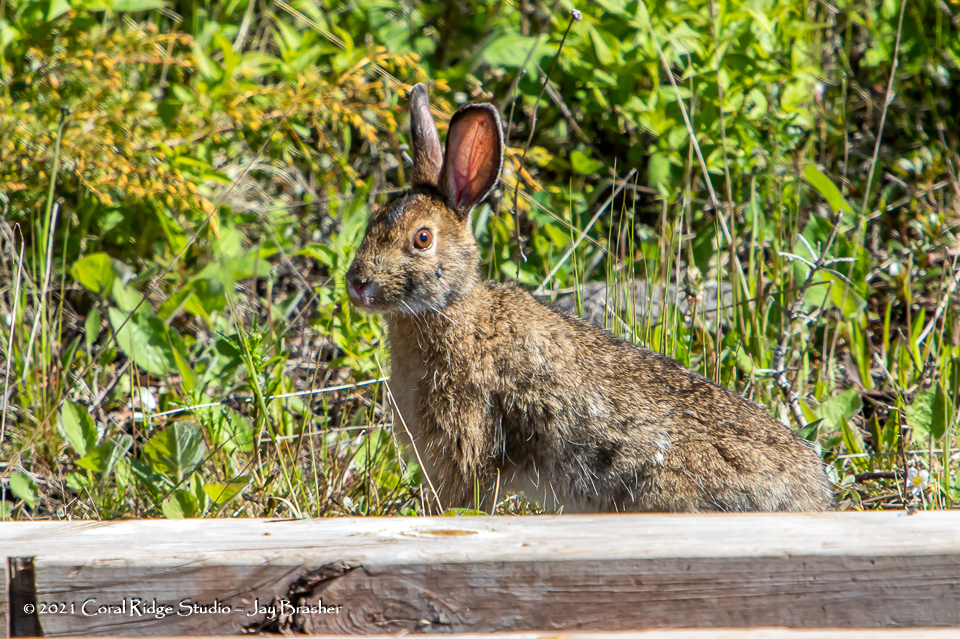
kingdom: Animalia
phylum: Chordata
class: Mammalia
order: Lagomorpha
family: Leporidae
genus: Lepus
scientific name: Lepus americanus
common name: Snowshoe hare
